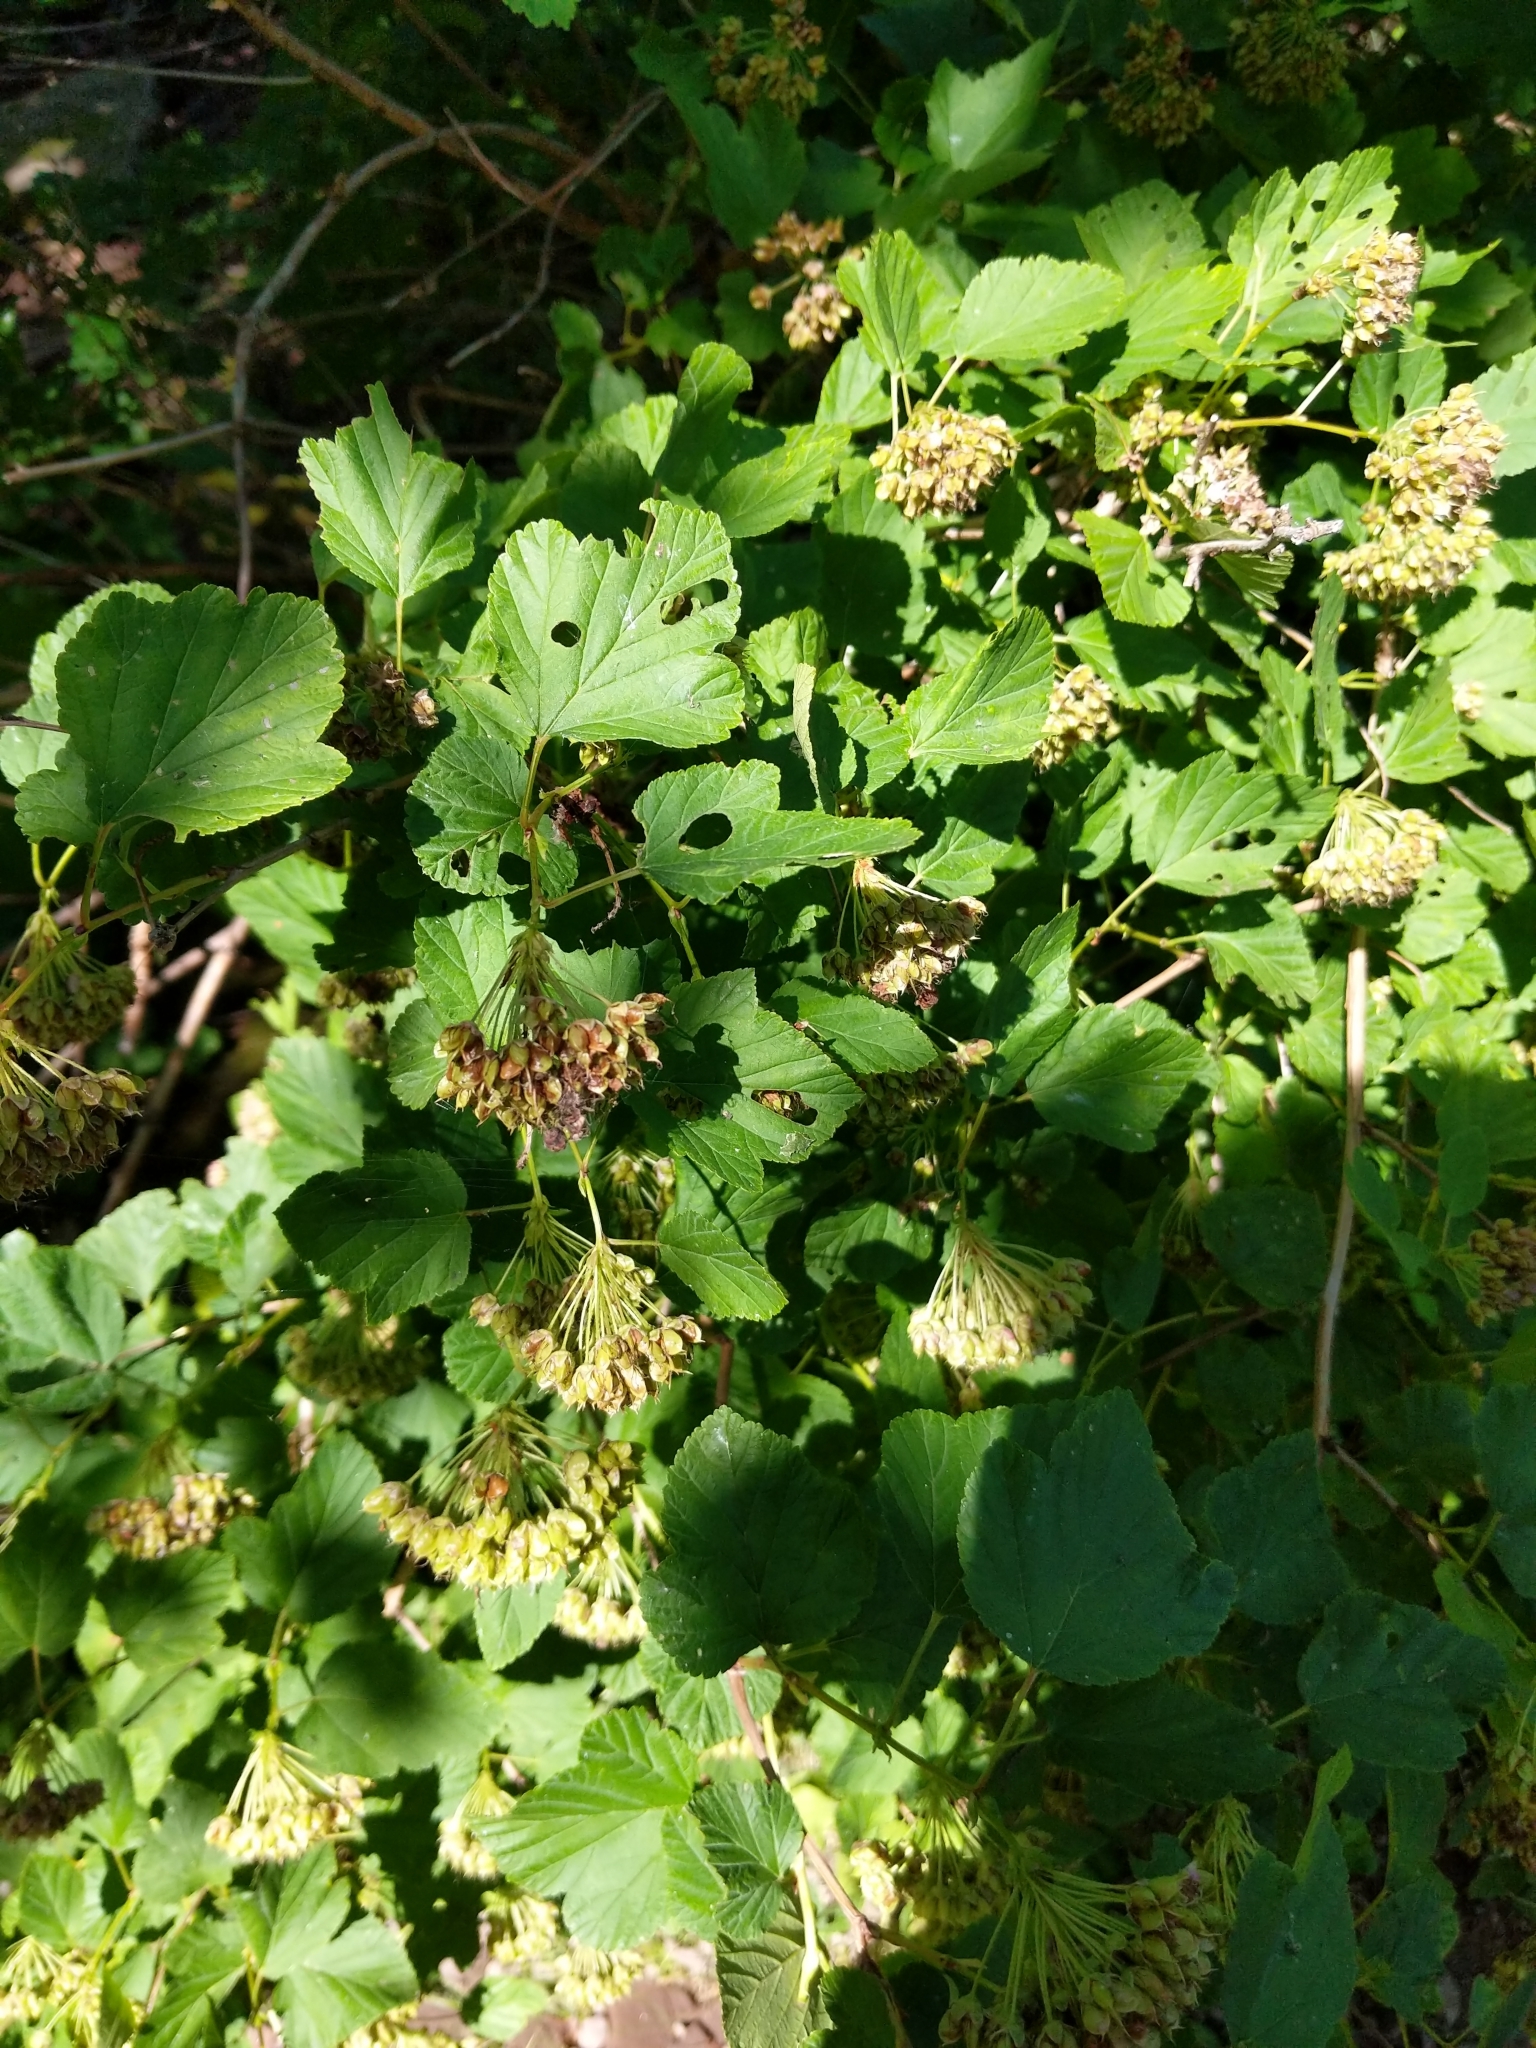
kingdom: Plantae
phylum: Tracheophyta
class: Magnoliopsida
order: Rosales
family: Rosaceae
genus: Physocarpus
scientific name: Physocarpus opulifolius
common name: Ninebark
